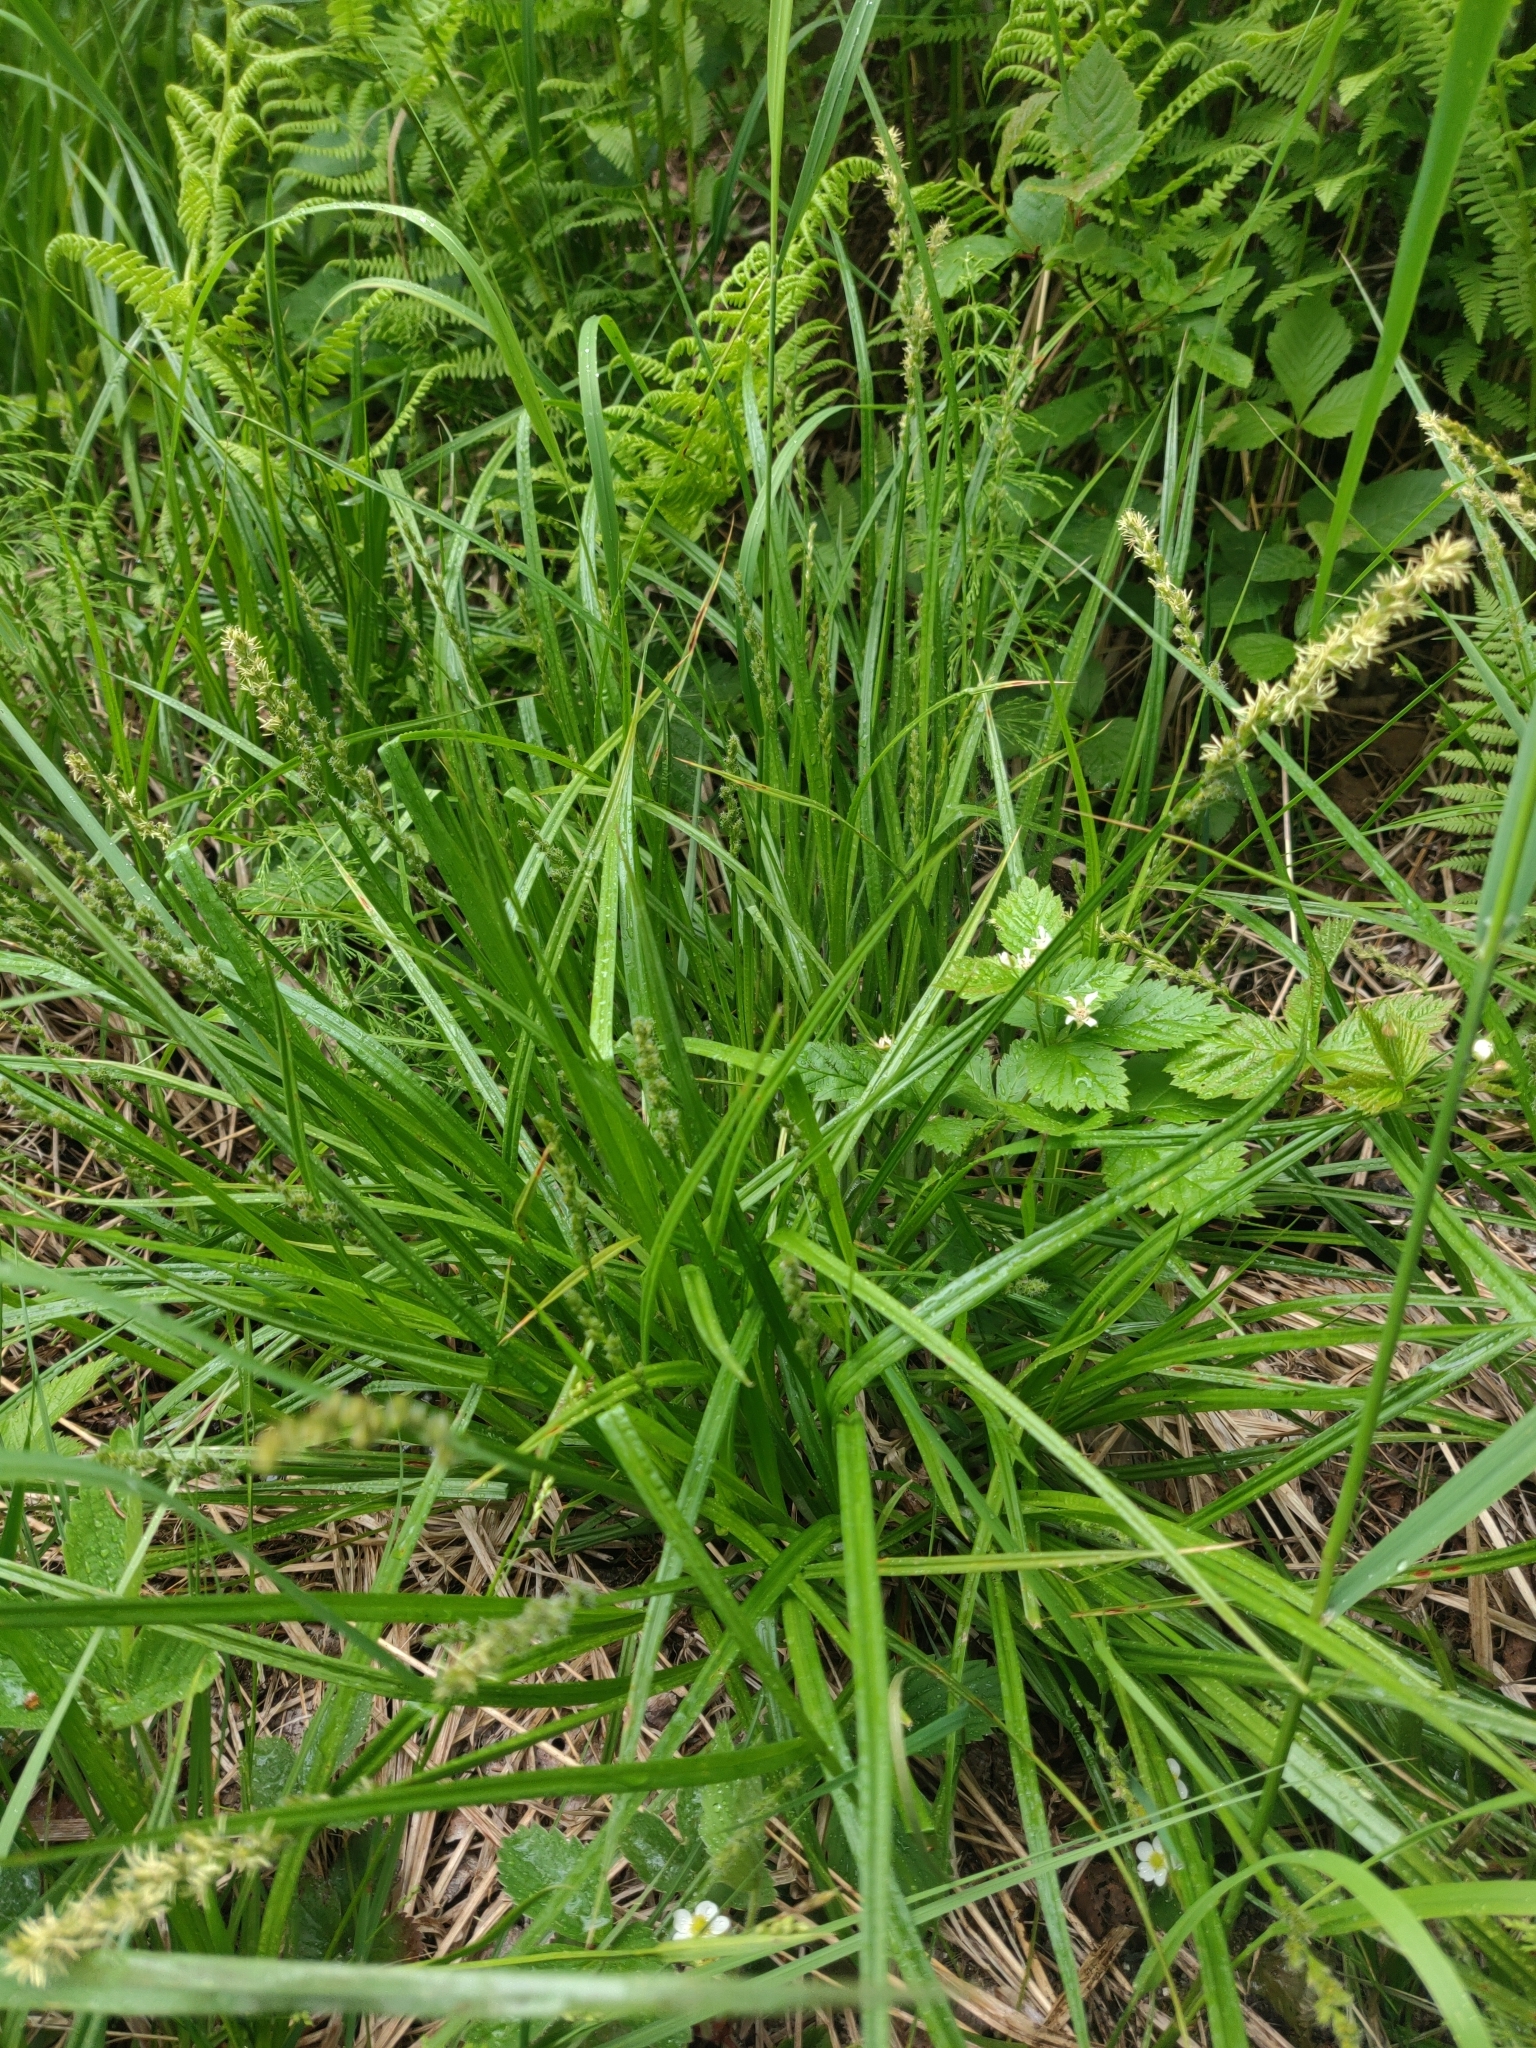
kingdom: Plantae
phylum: Tracheophyta
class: Liliopsida
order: Poales
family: Cyperaceae
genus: Carex
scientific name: Carex stipata
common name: Awl-fruited sedge
